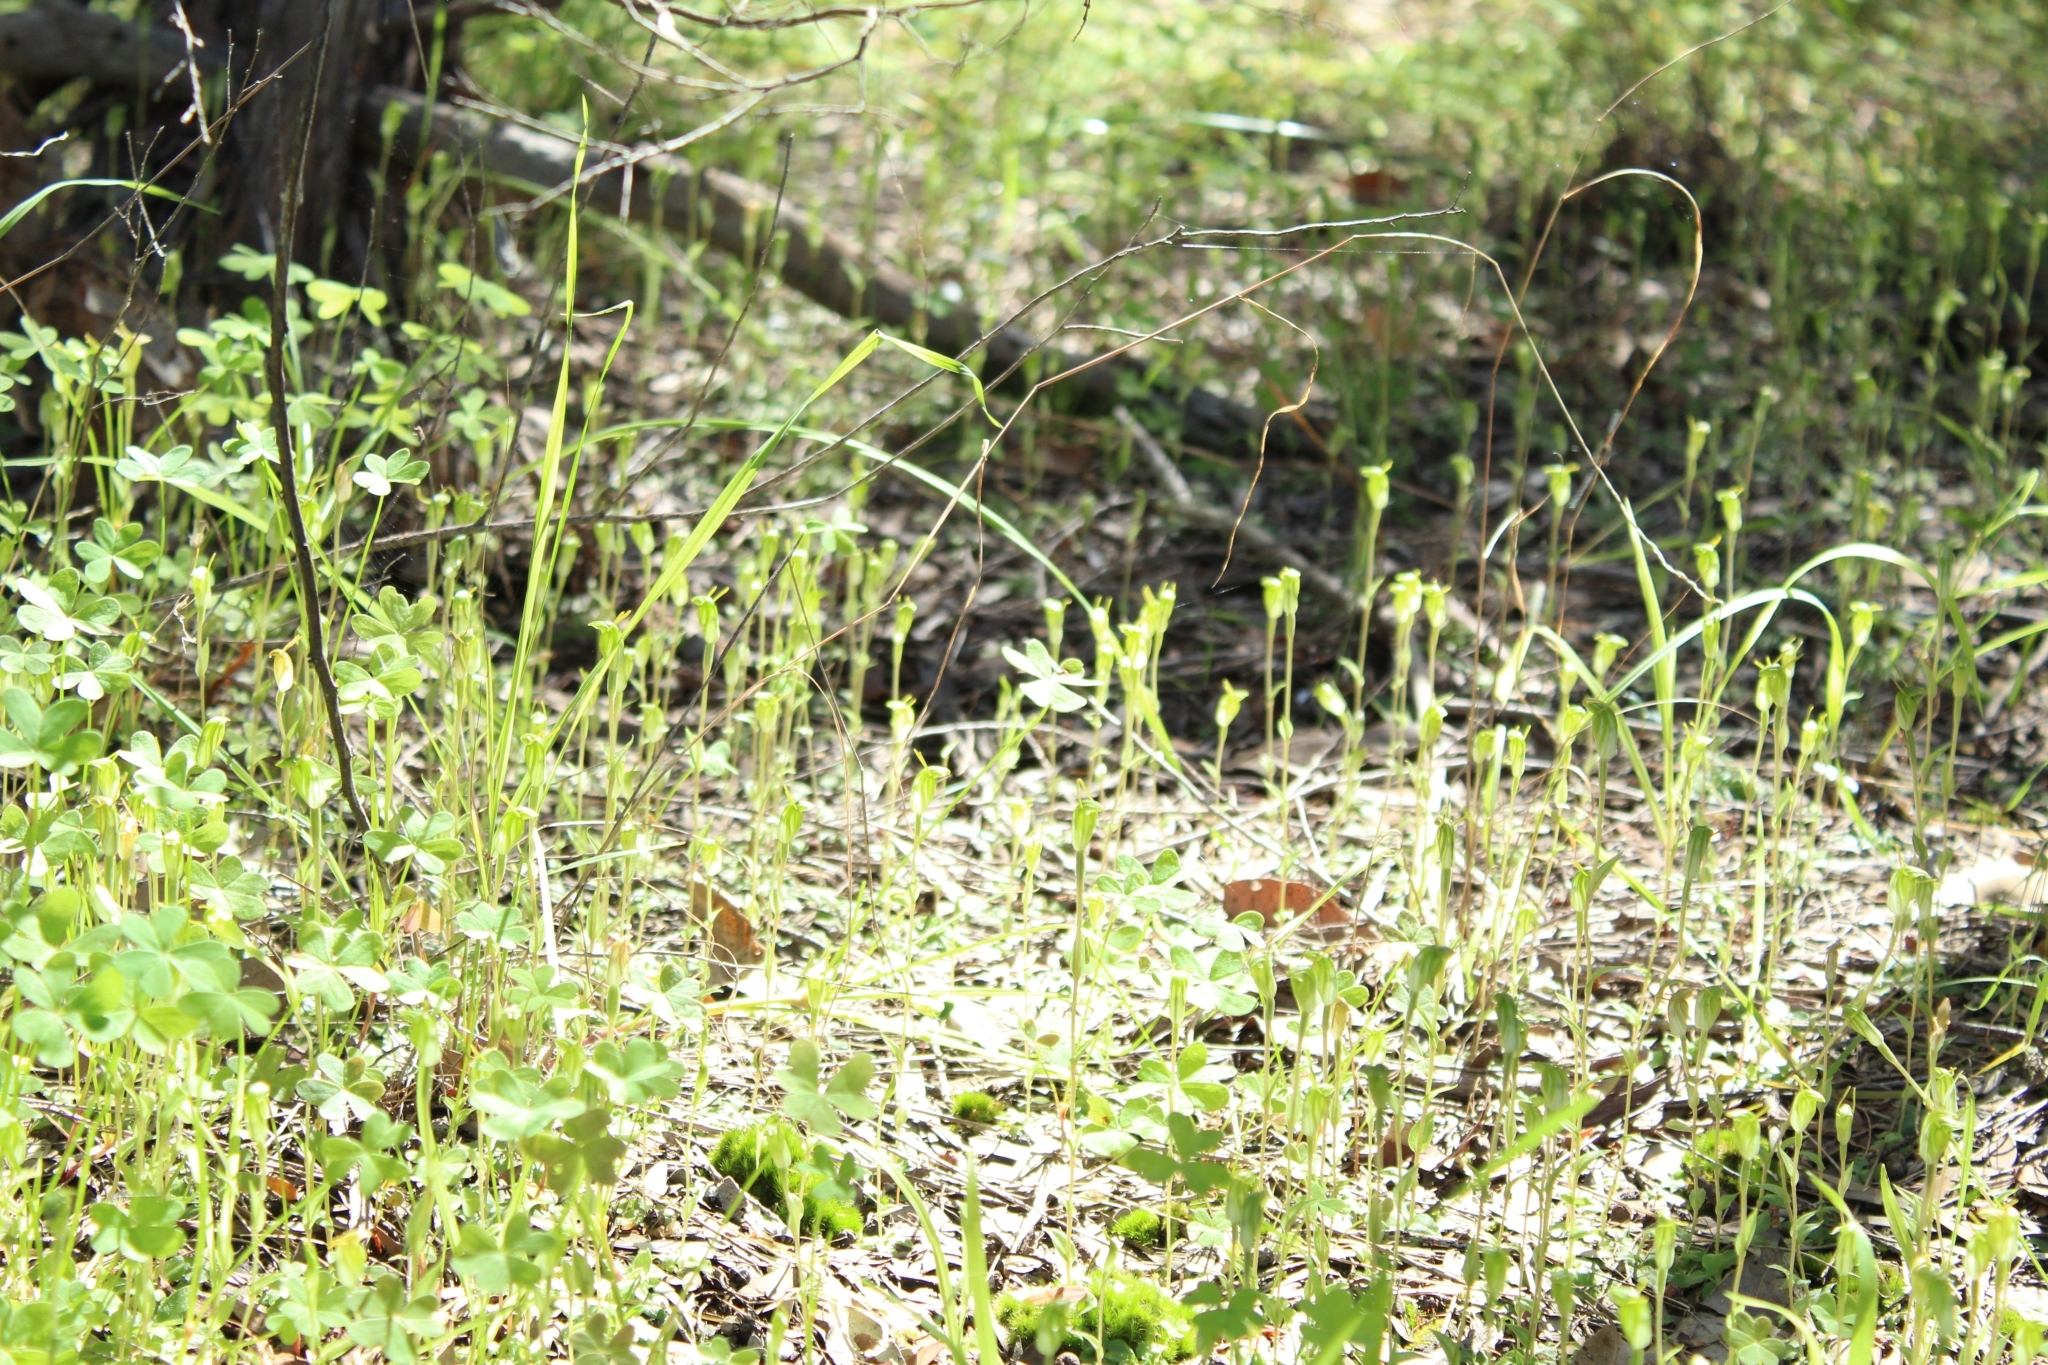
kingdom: Plantae
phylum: Tracheophyta
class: Liliopsida
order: Asparagales
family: Orchidaceae
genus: Pterostylis
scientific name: Pterostylis ectypha
